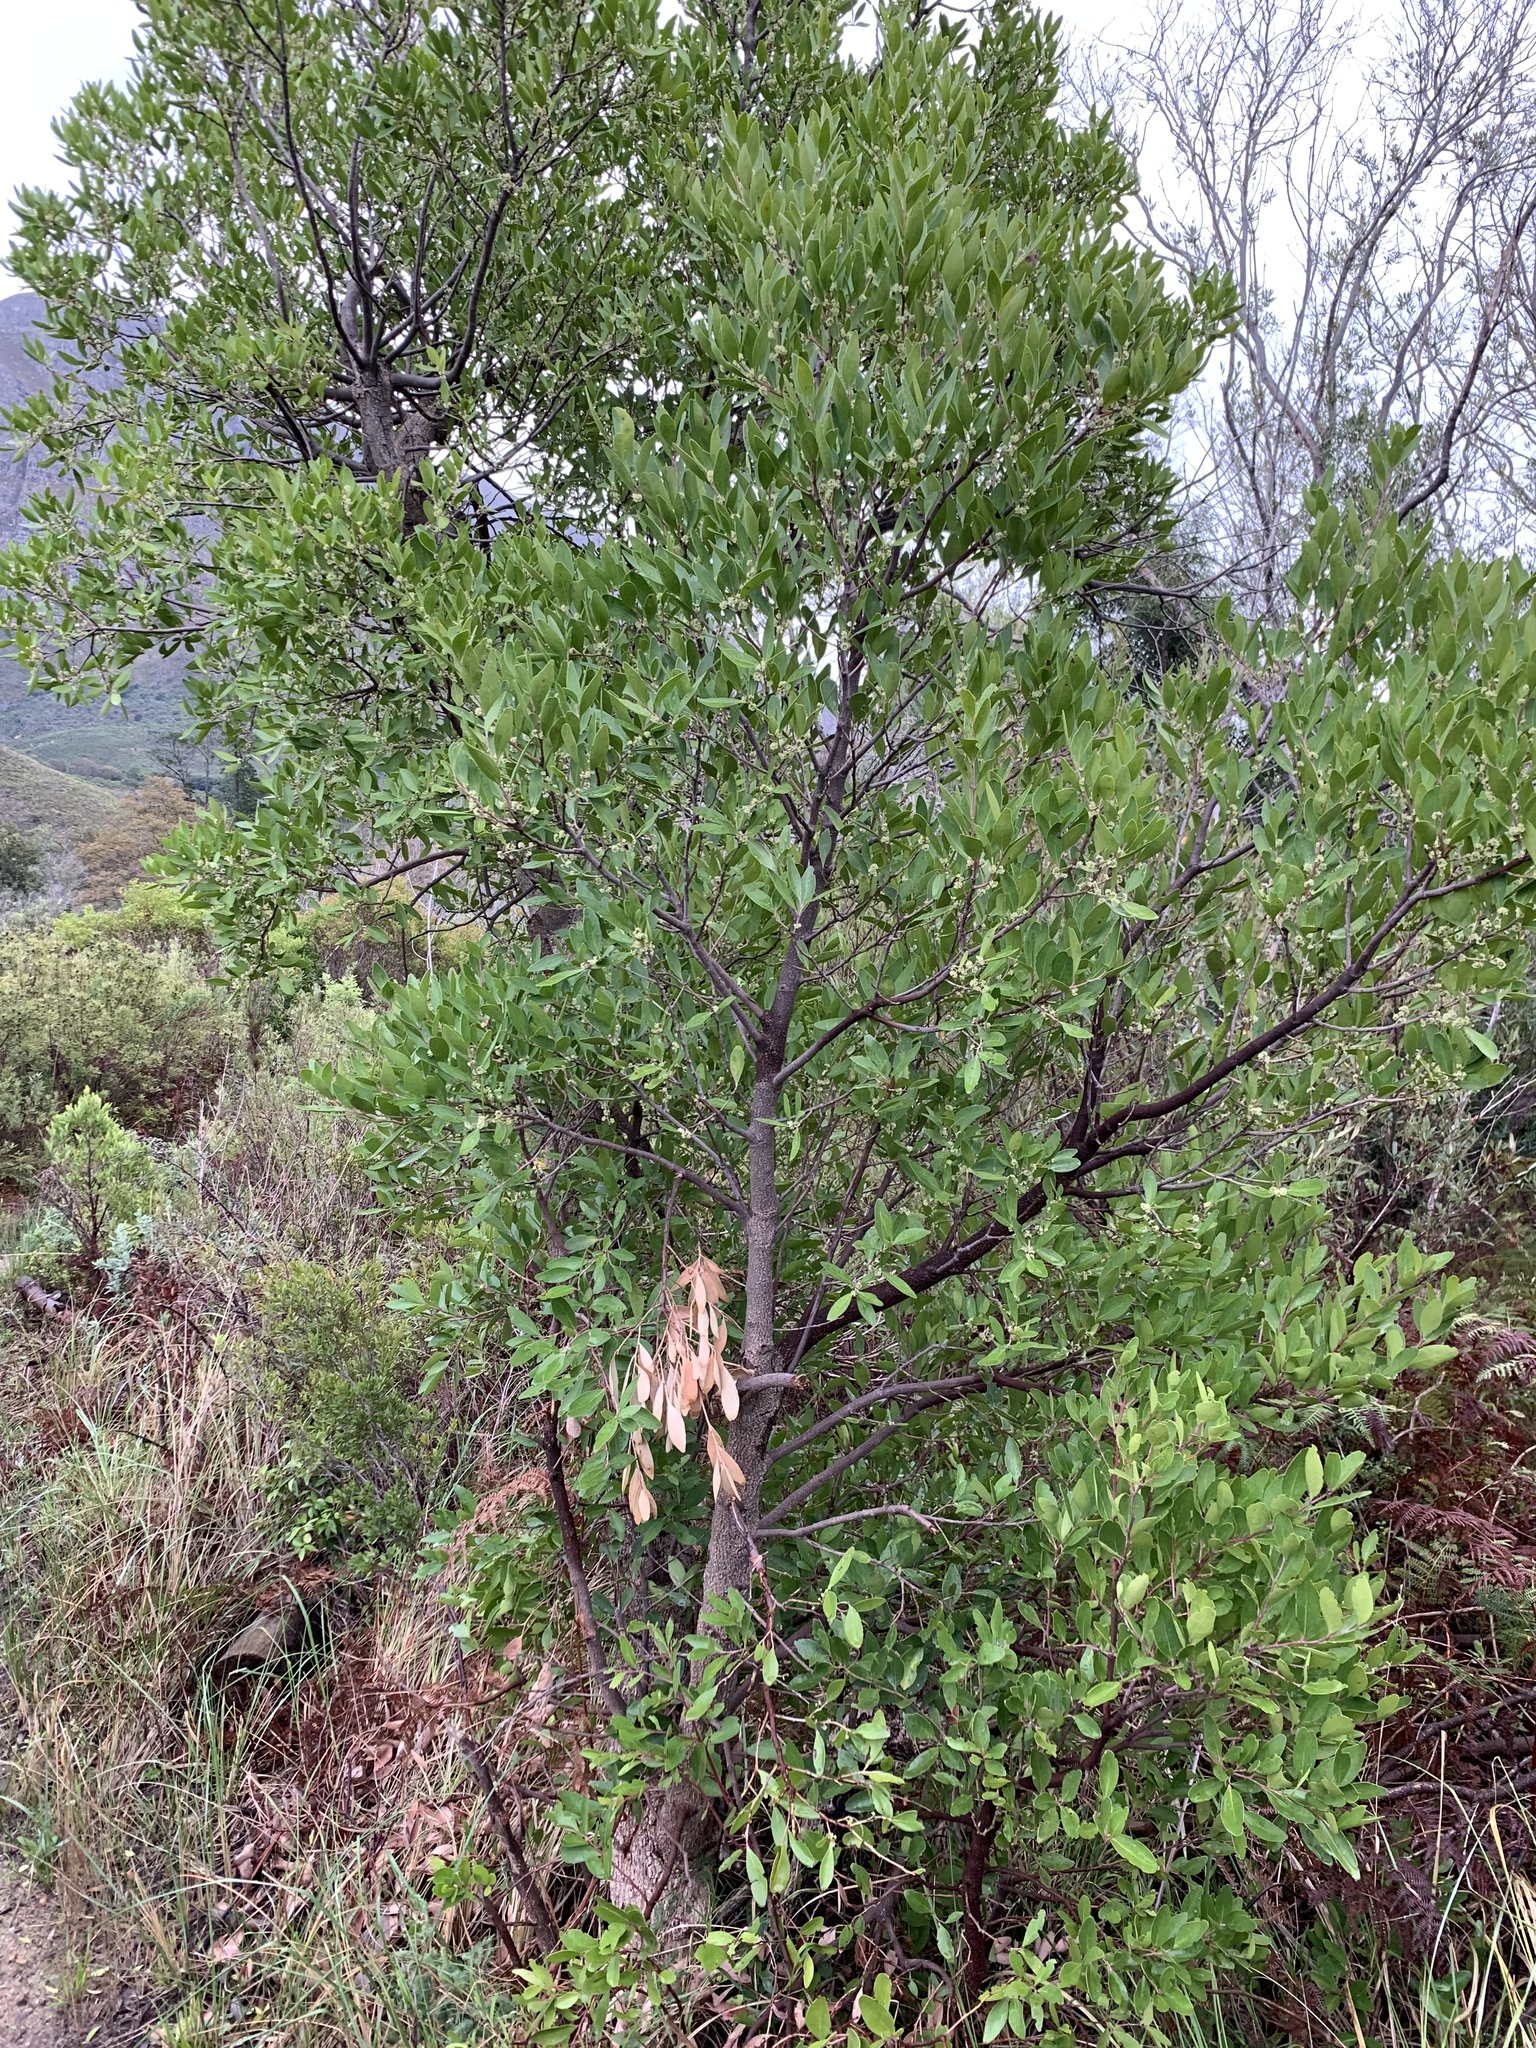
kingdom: Plantae
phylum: Tracheophyta
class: Magnoliopsida
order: Celastrales
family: Celastraceae
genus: Gymnosporia
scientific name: Gymnosporia laurina
